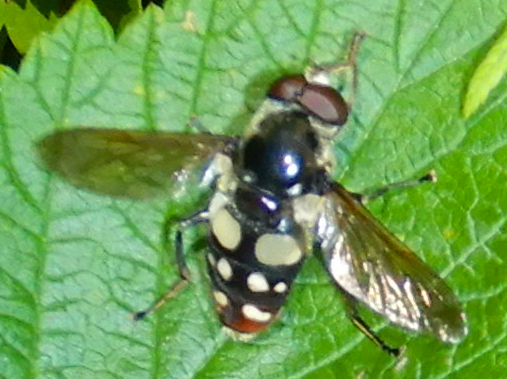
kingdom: Animalia
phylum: Arthropoda
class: Insecta
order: Diptera
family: Syrphidae
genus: Sericomyia
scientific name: Sericomyia lata
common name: White-spotted pond fly
